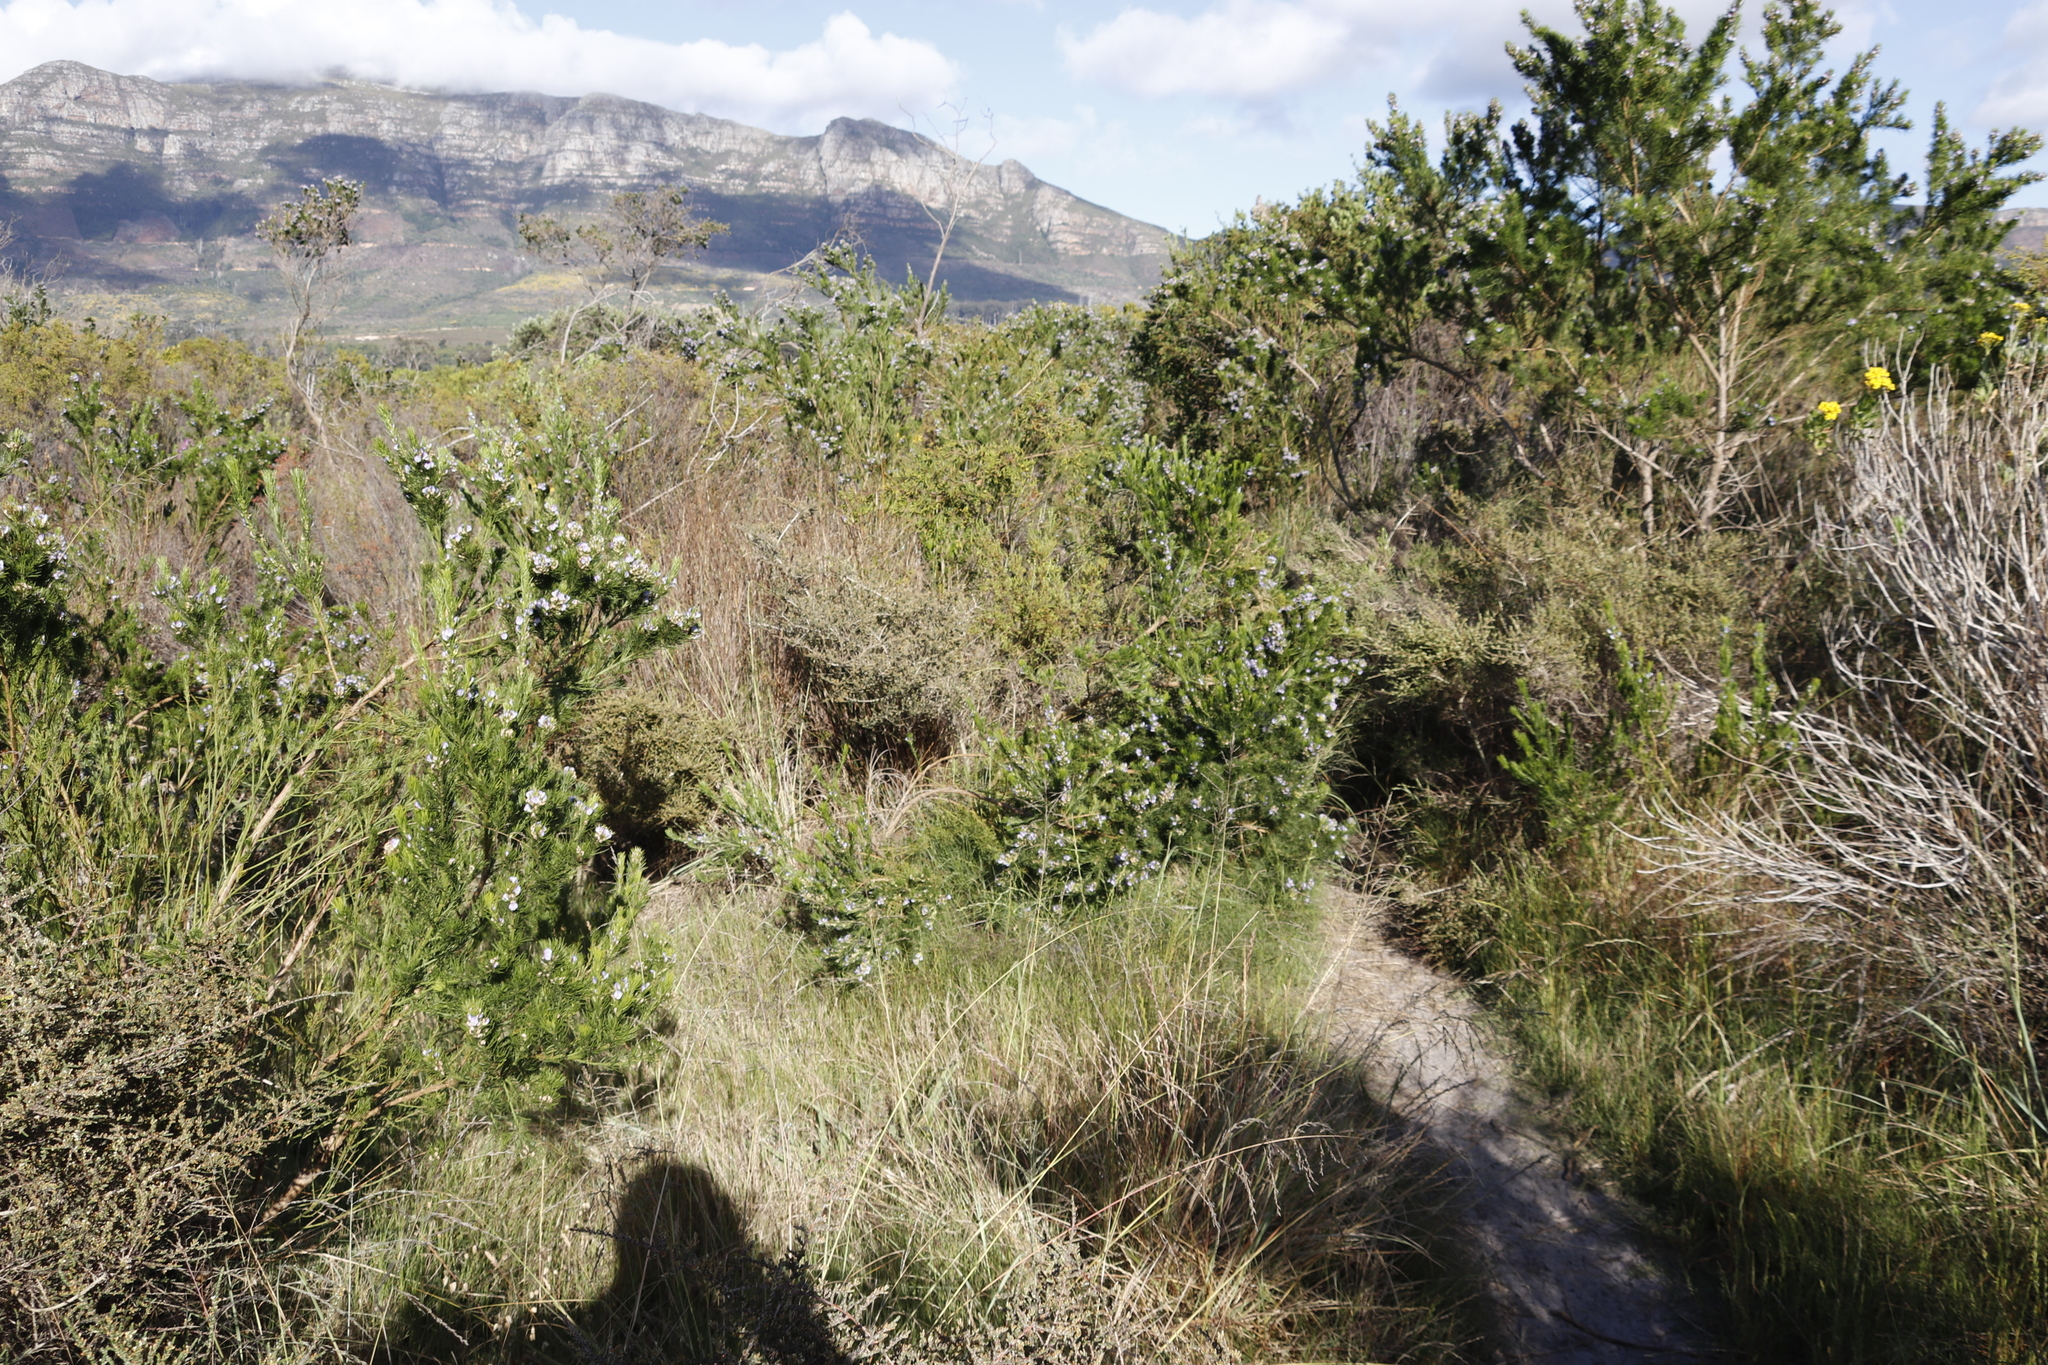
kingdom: Plantae
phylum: Tracheophyta
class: Magnoliopsida
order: Fabales
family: Fabaceae
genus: Psoralea
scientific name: Psoralea pinnata
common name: African scurfpea
